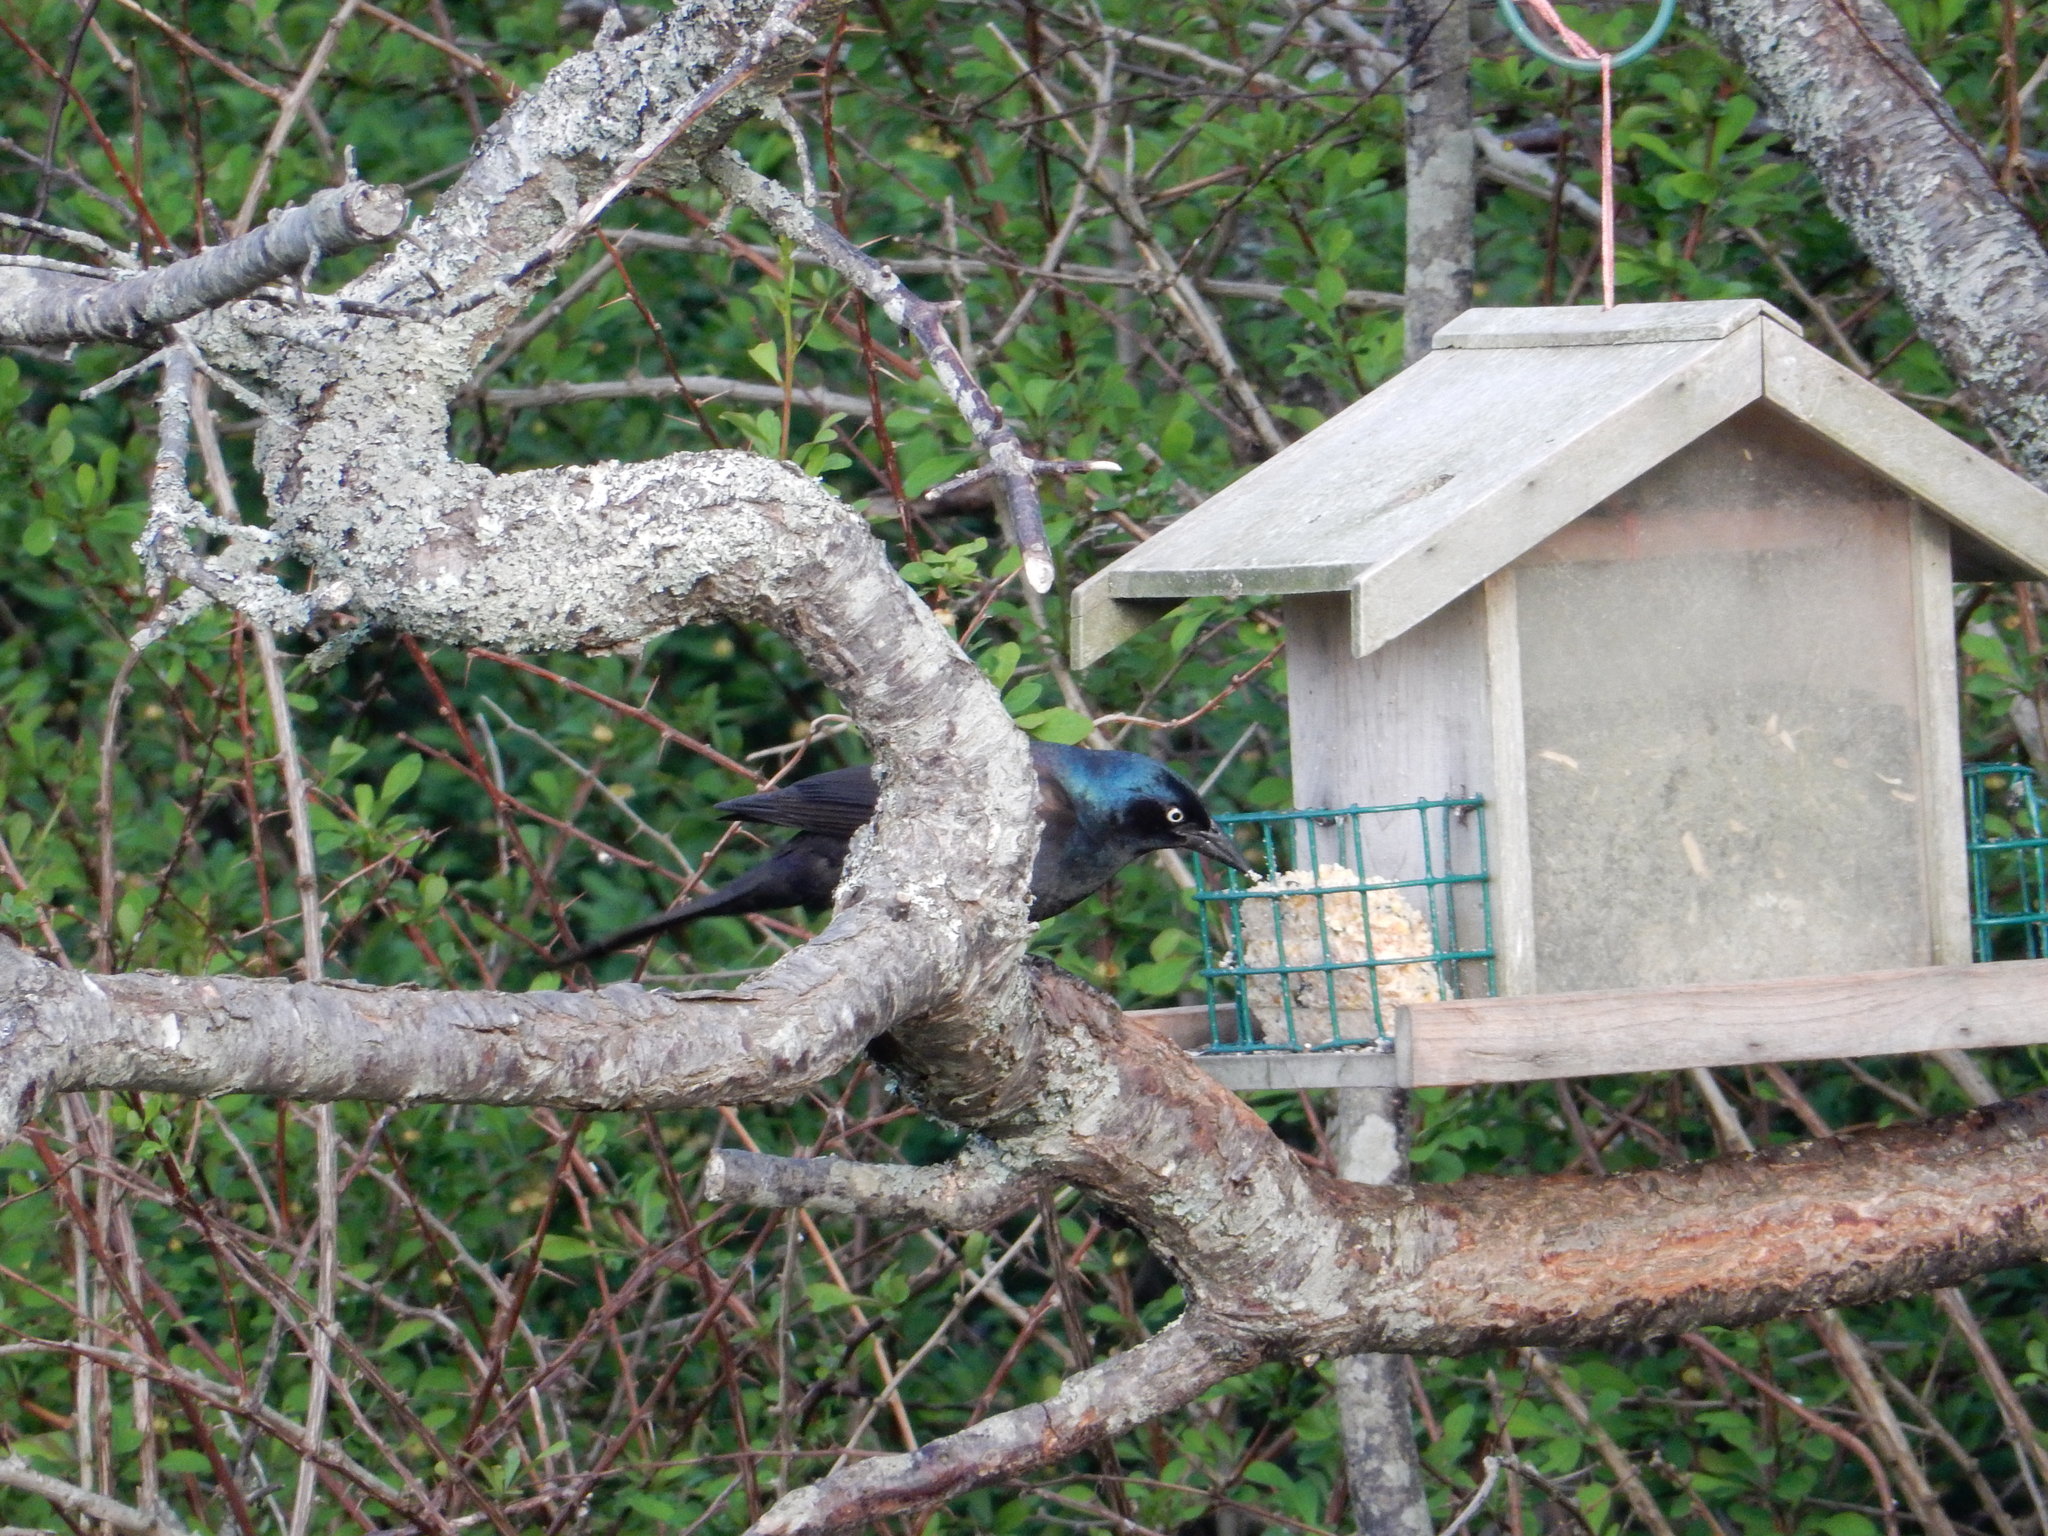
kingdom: Animalia
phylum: Chordata
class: Aves
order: Passeriformes
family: Icteridae
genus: Quiscalus
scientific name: Quiscalus quiscula
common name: Common grackle
